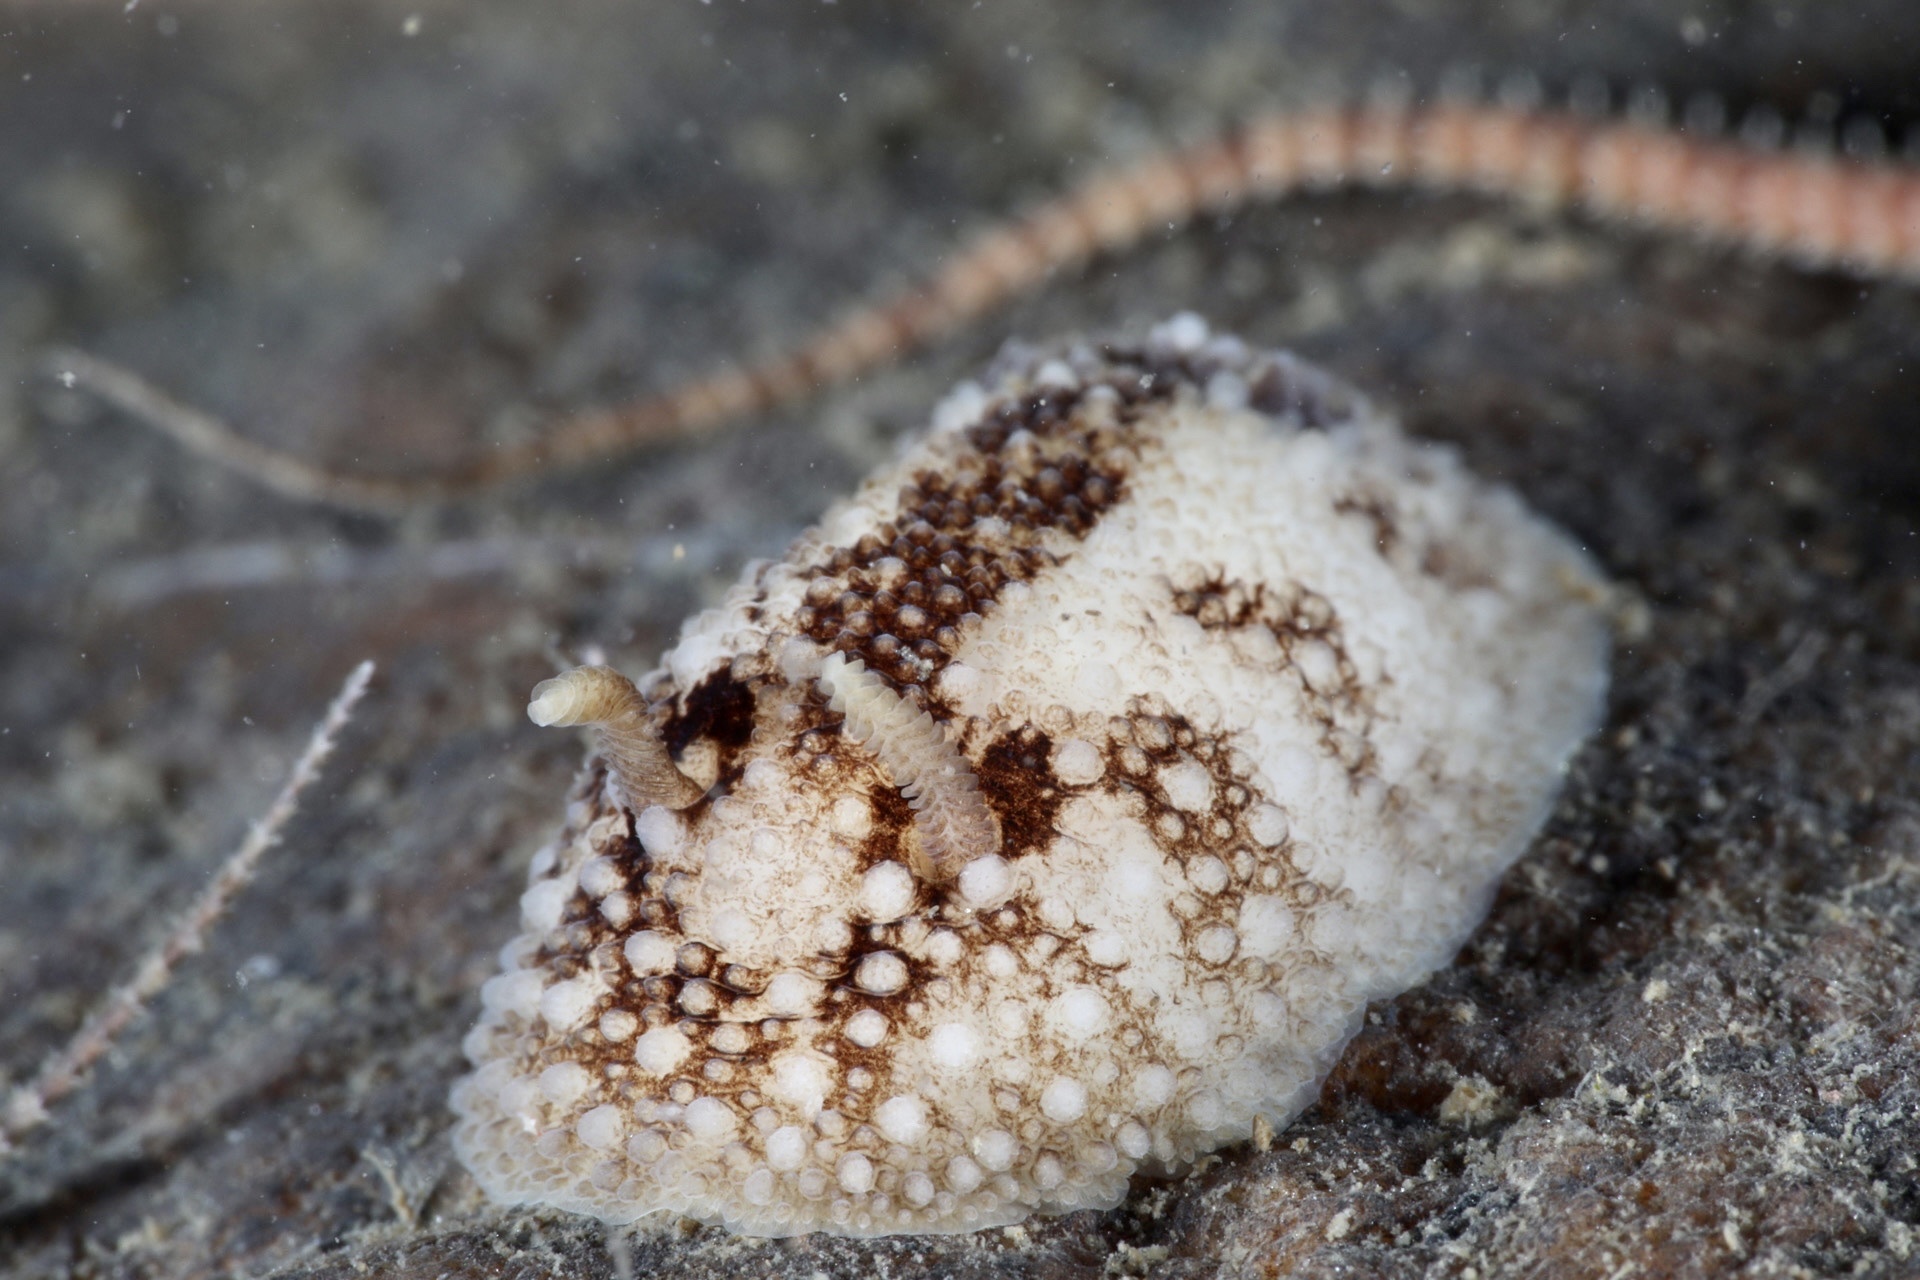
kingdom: Animalia
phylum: Mollusca
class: Gastropoda
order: Nudibranchia
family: Onchidorididae
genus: Onchidoris
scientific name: Onchidoris bilamellata
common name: Barnacle-eating onchidoris
